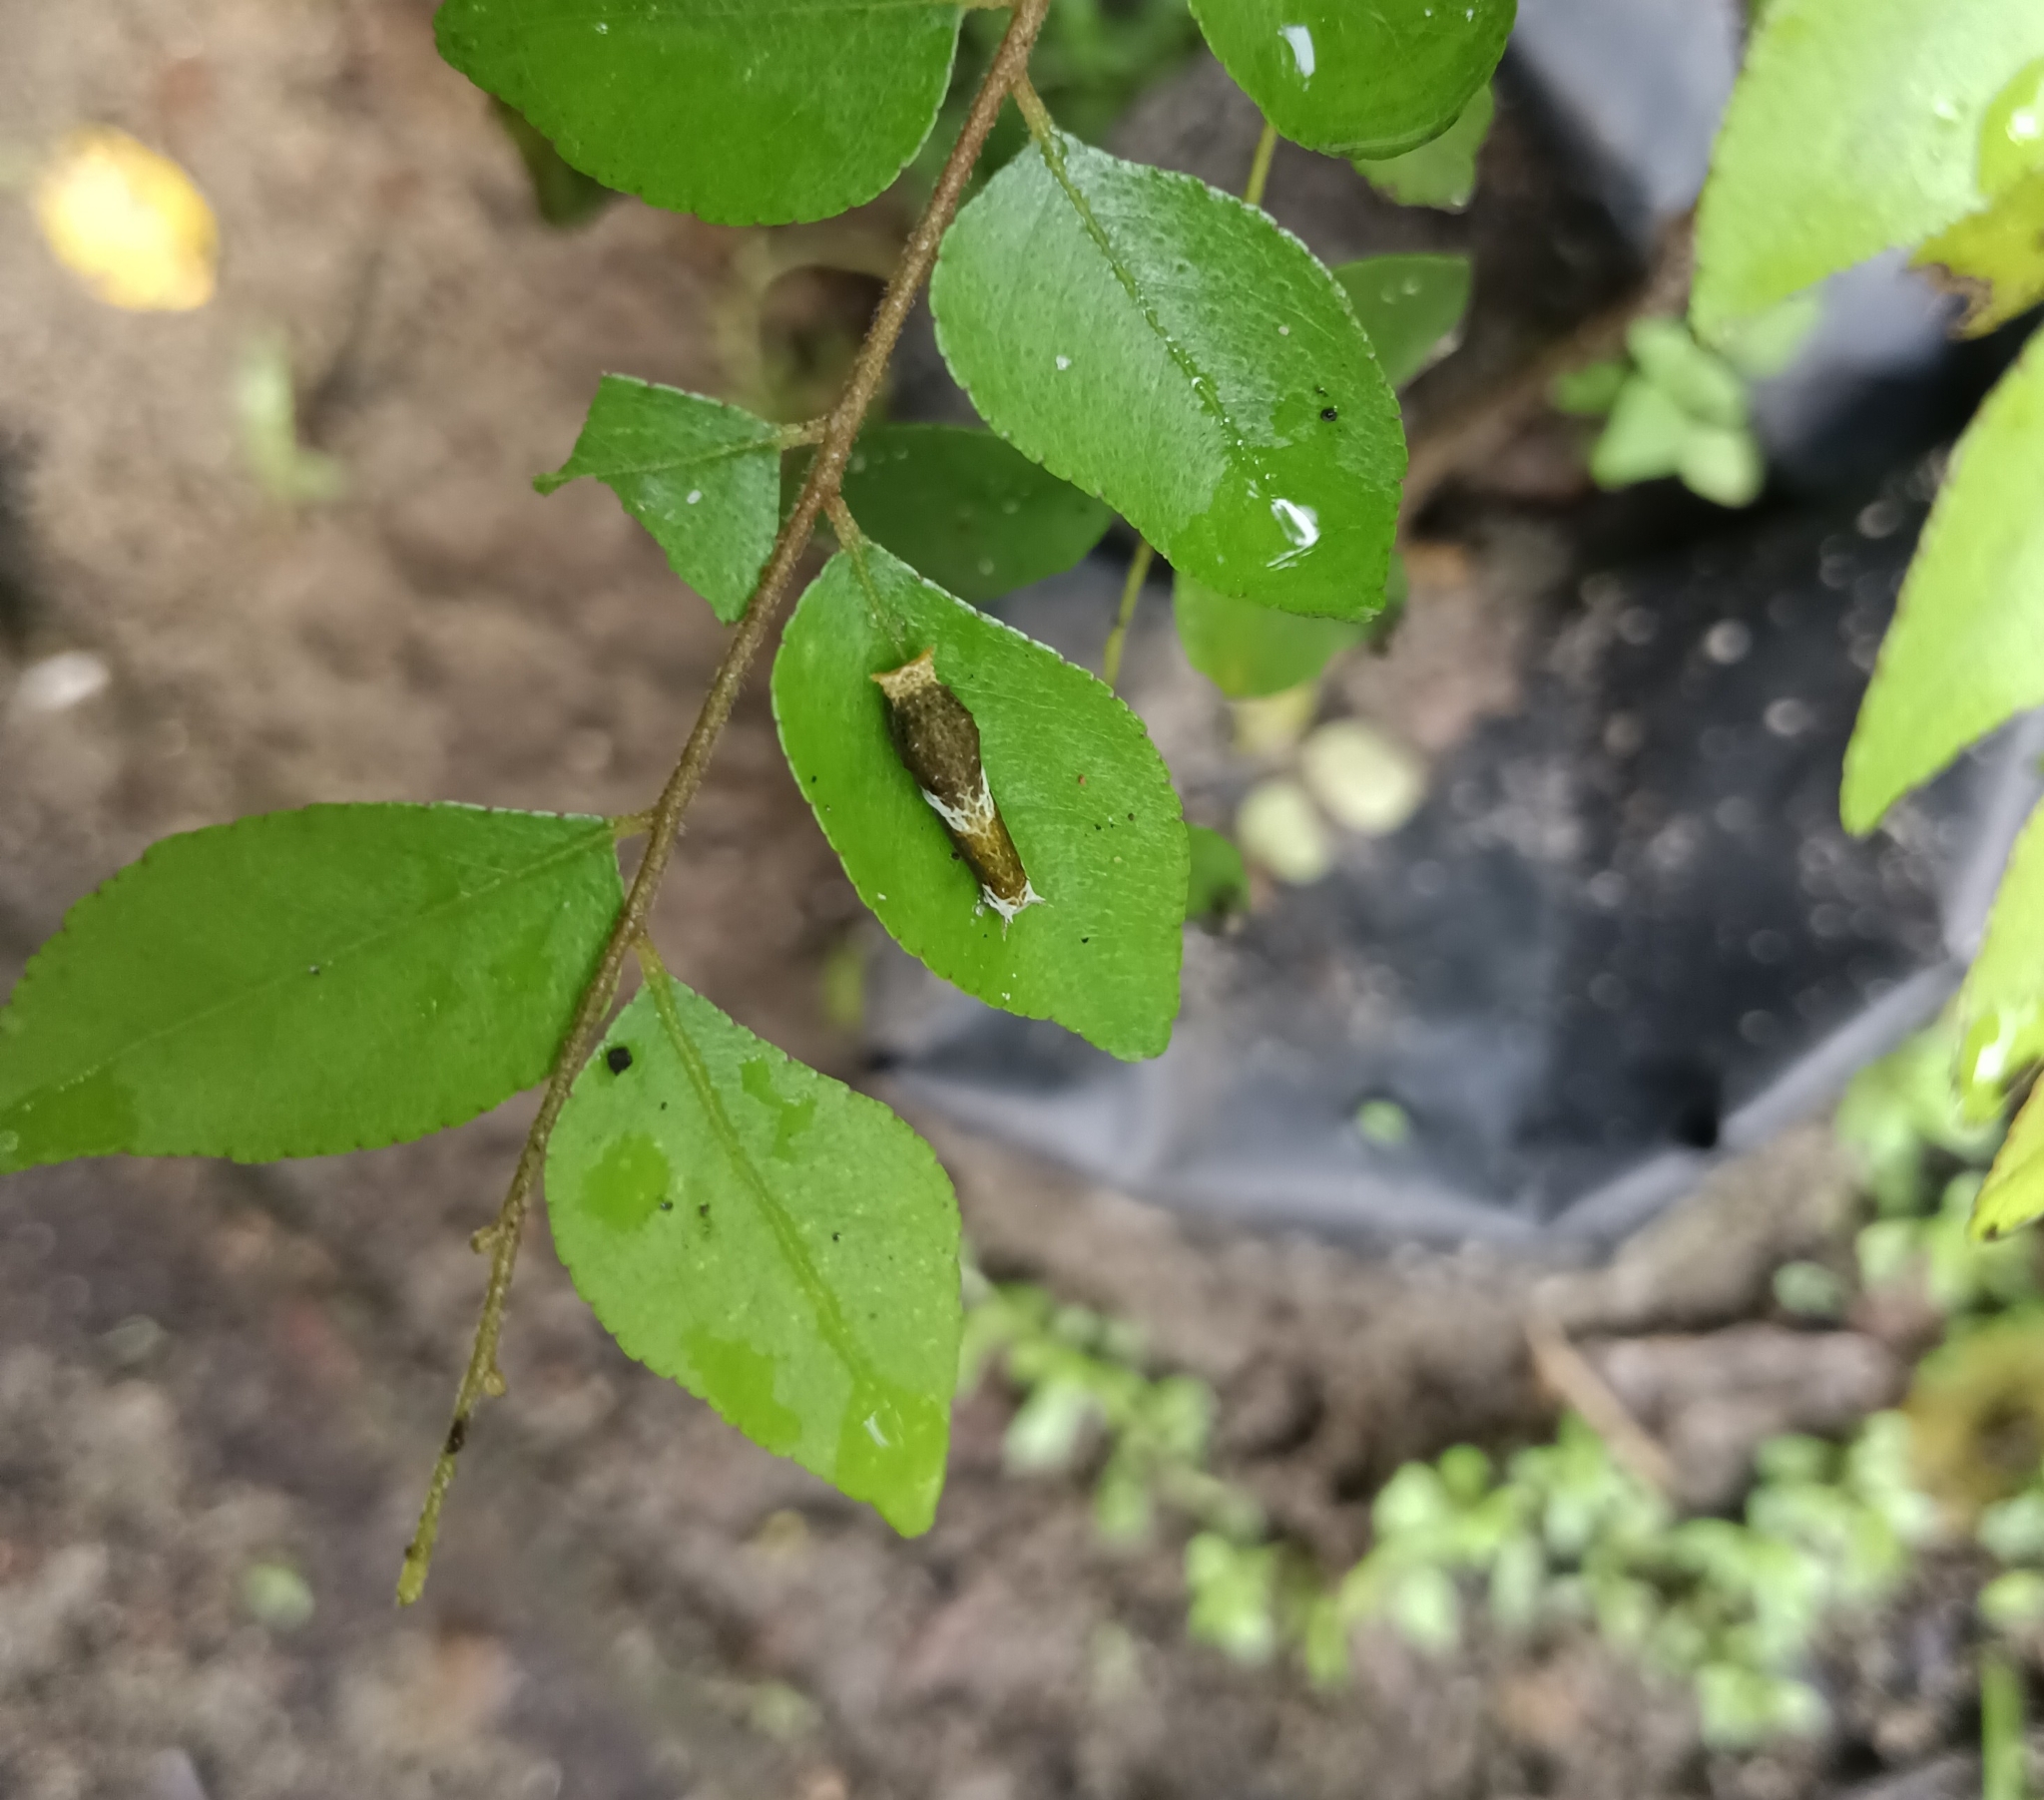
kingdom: Animalia
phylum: Arthropoda
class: Insecta
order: Lepidoptera
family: Papilionidae
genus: Papilio
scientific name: Papilio polytes
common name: Common mormon
